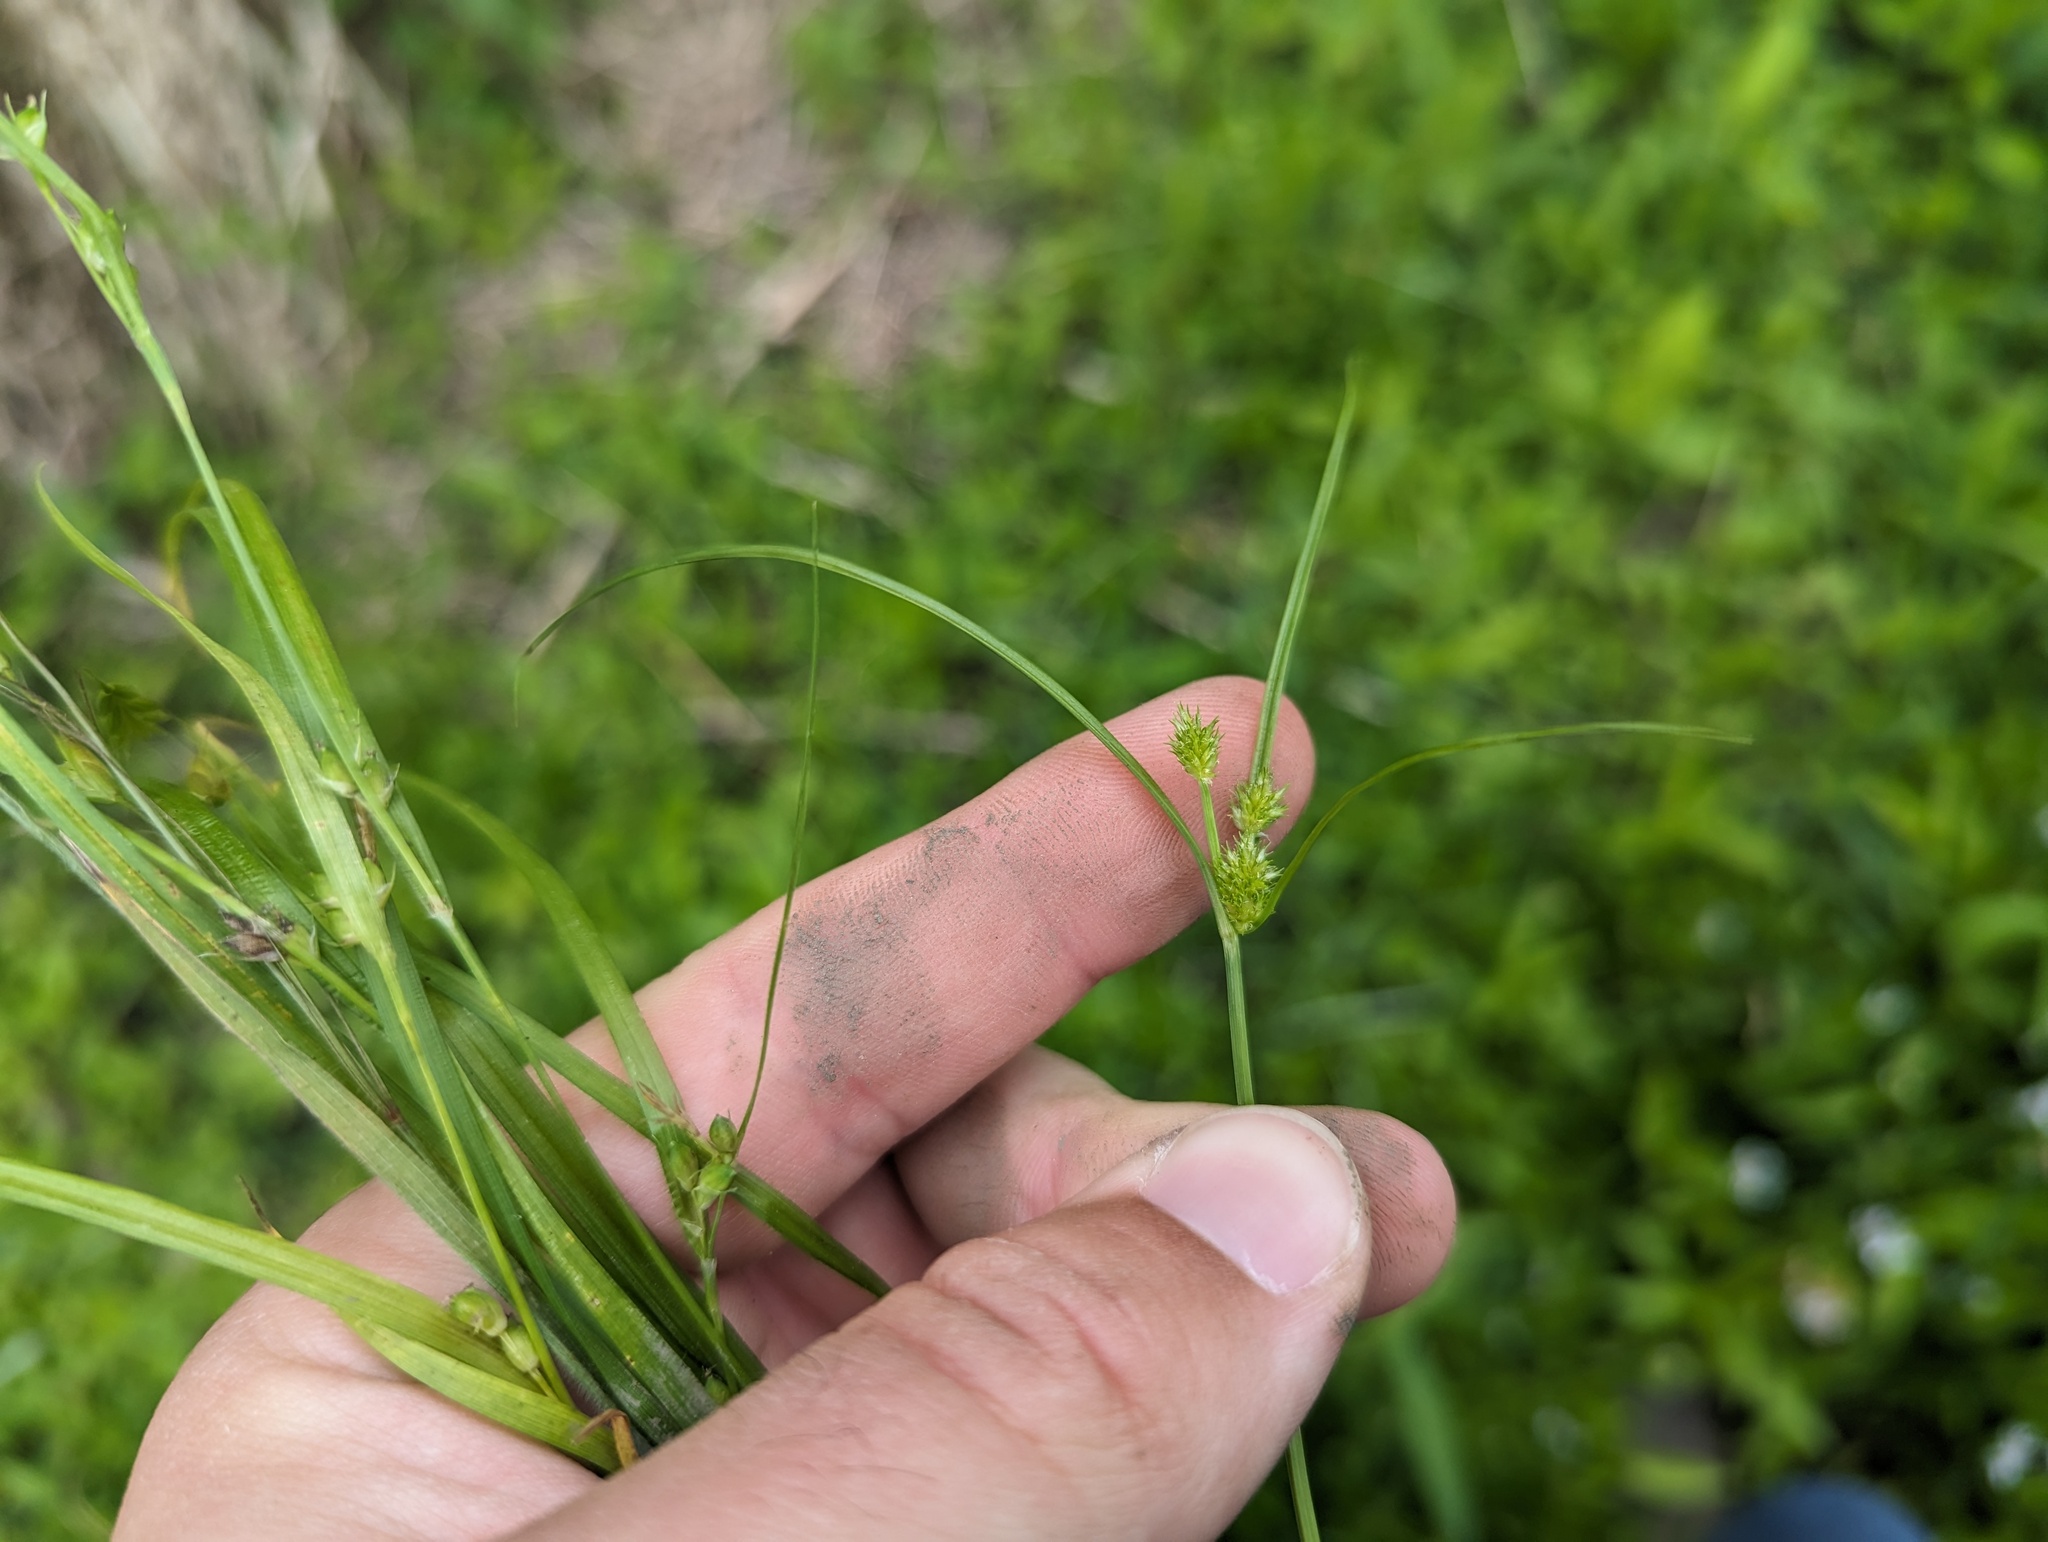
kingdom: Plantae
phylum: Tracheophyta
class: Liliopsida
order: Poales
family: Cyperaceae
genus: Cyperus
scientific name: Cyperus squarrosus
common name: Awned cyperus
